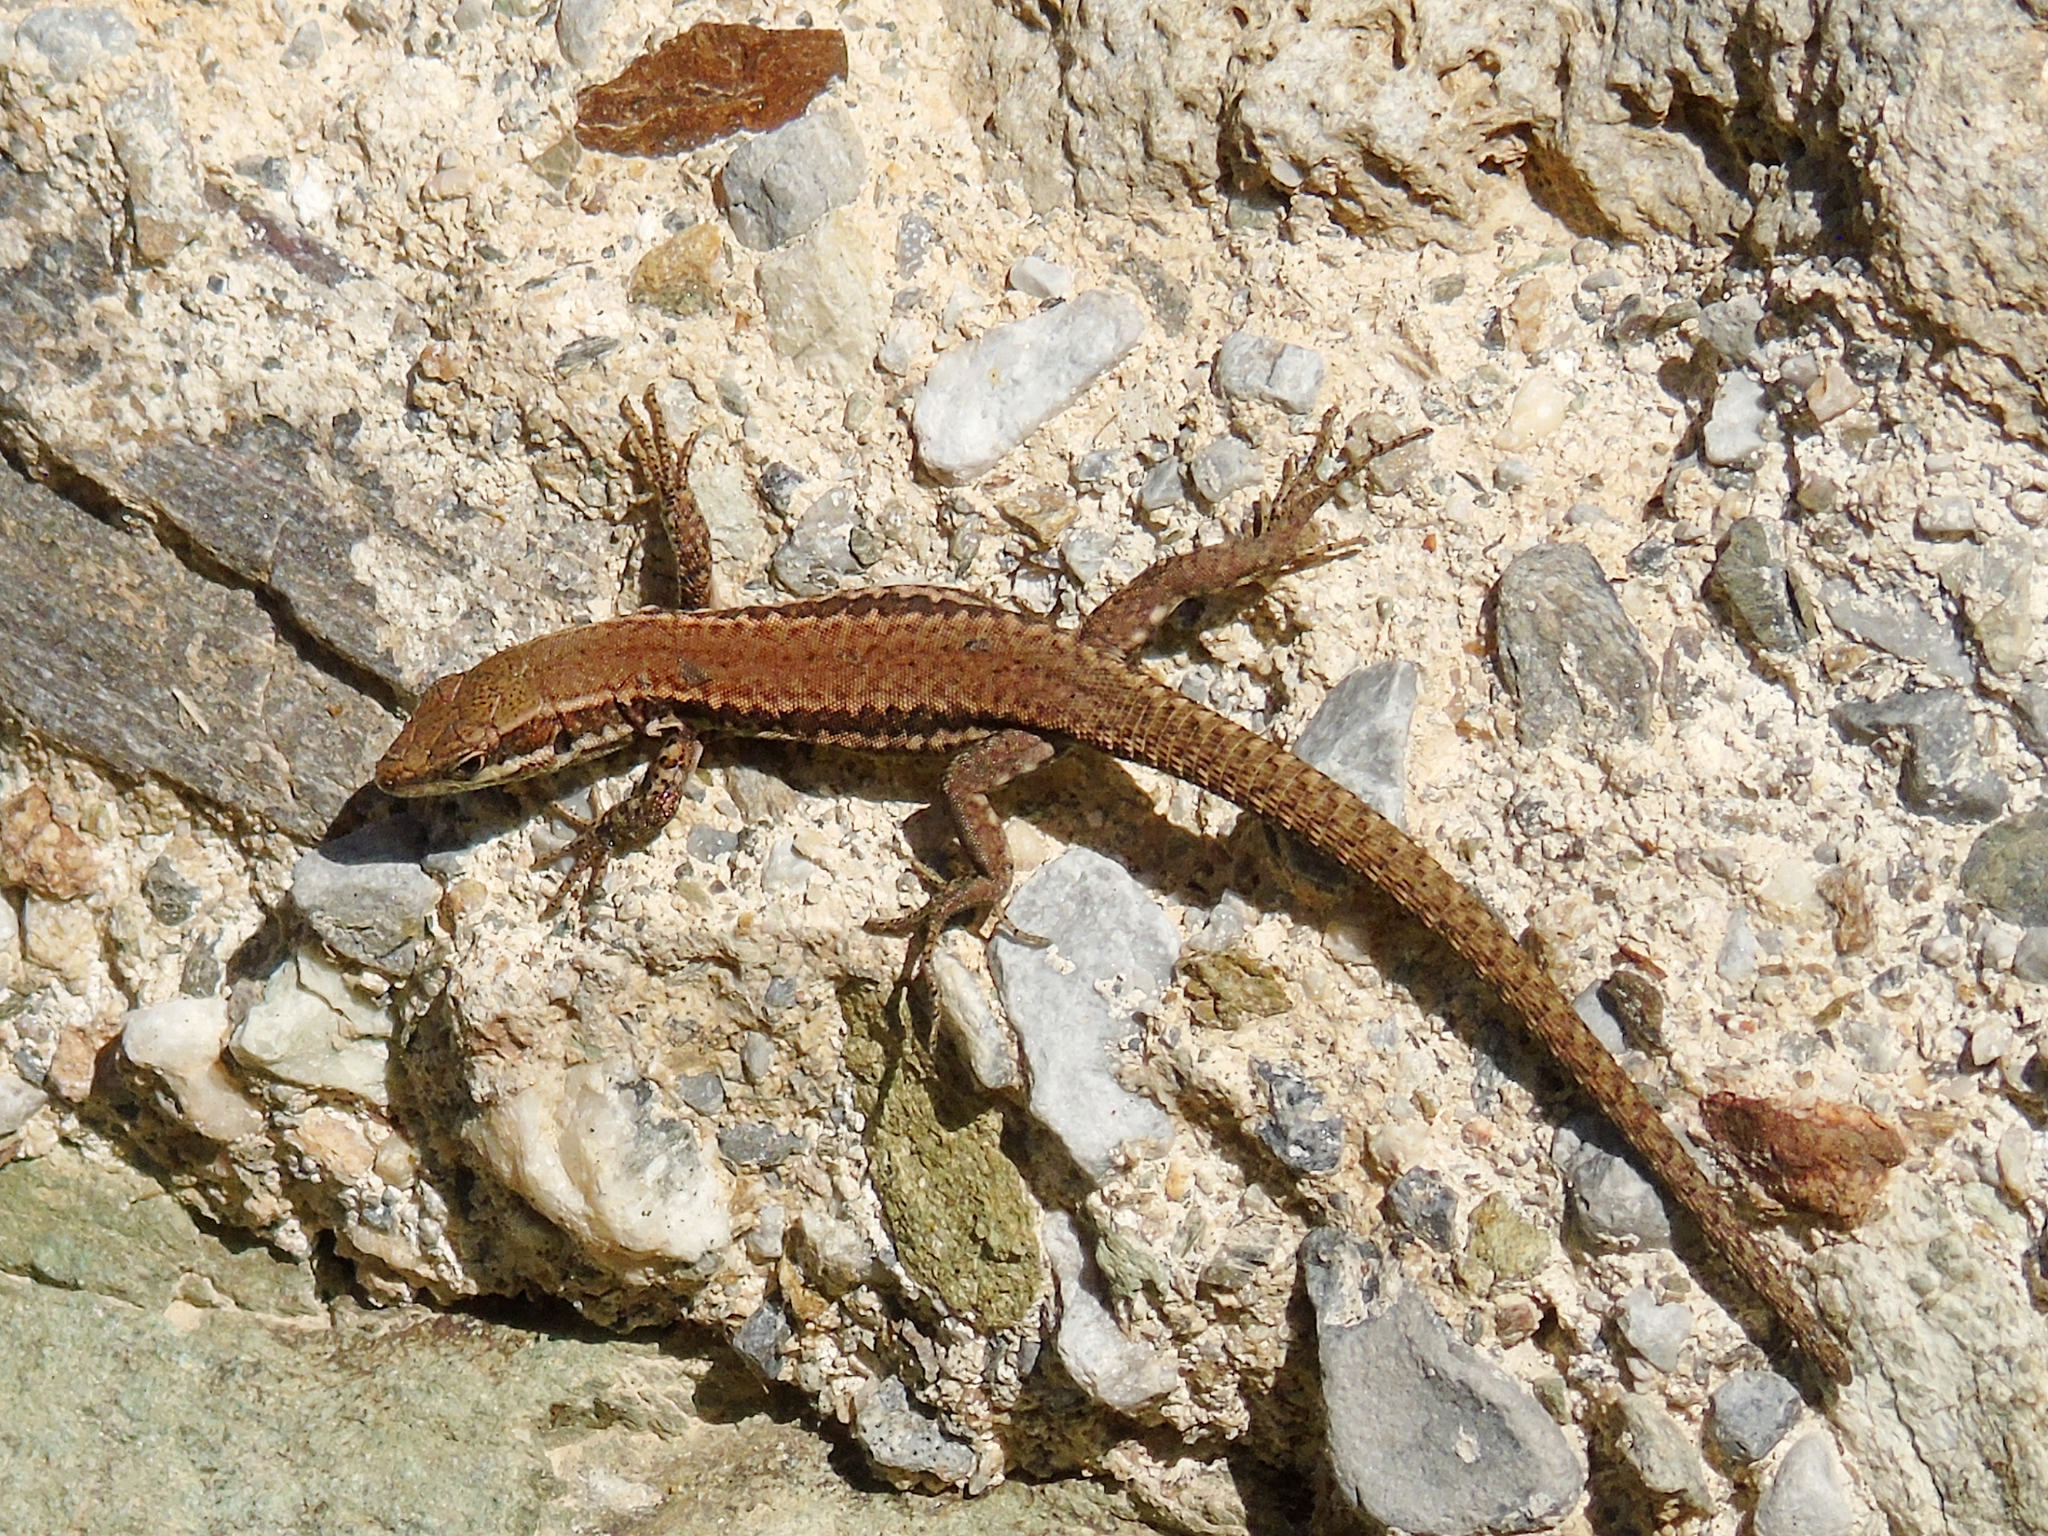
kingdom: Animalia
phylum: Chordata
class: Squamata
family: Lacertidae
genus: Podarcis
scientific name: Podarcis muralis
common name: Common wall lizard
